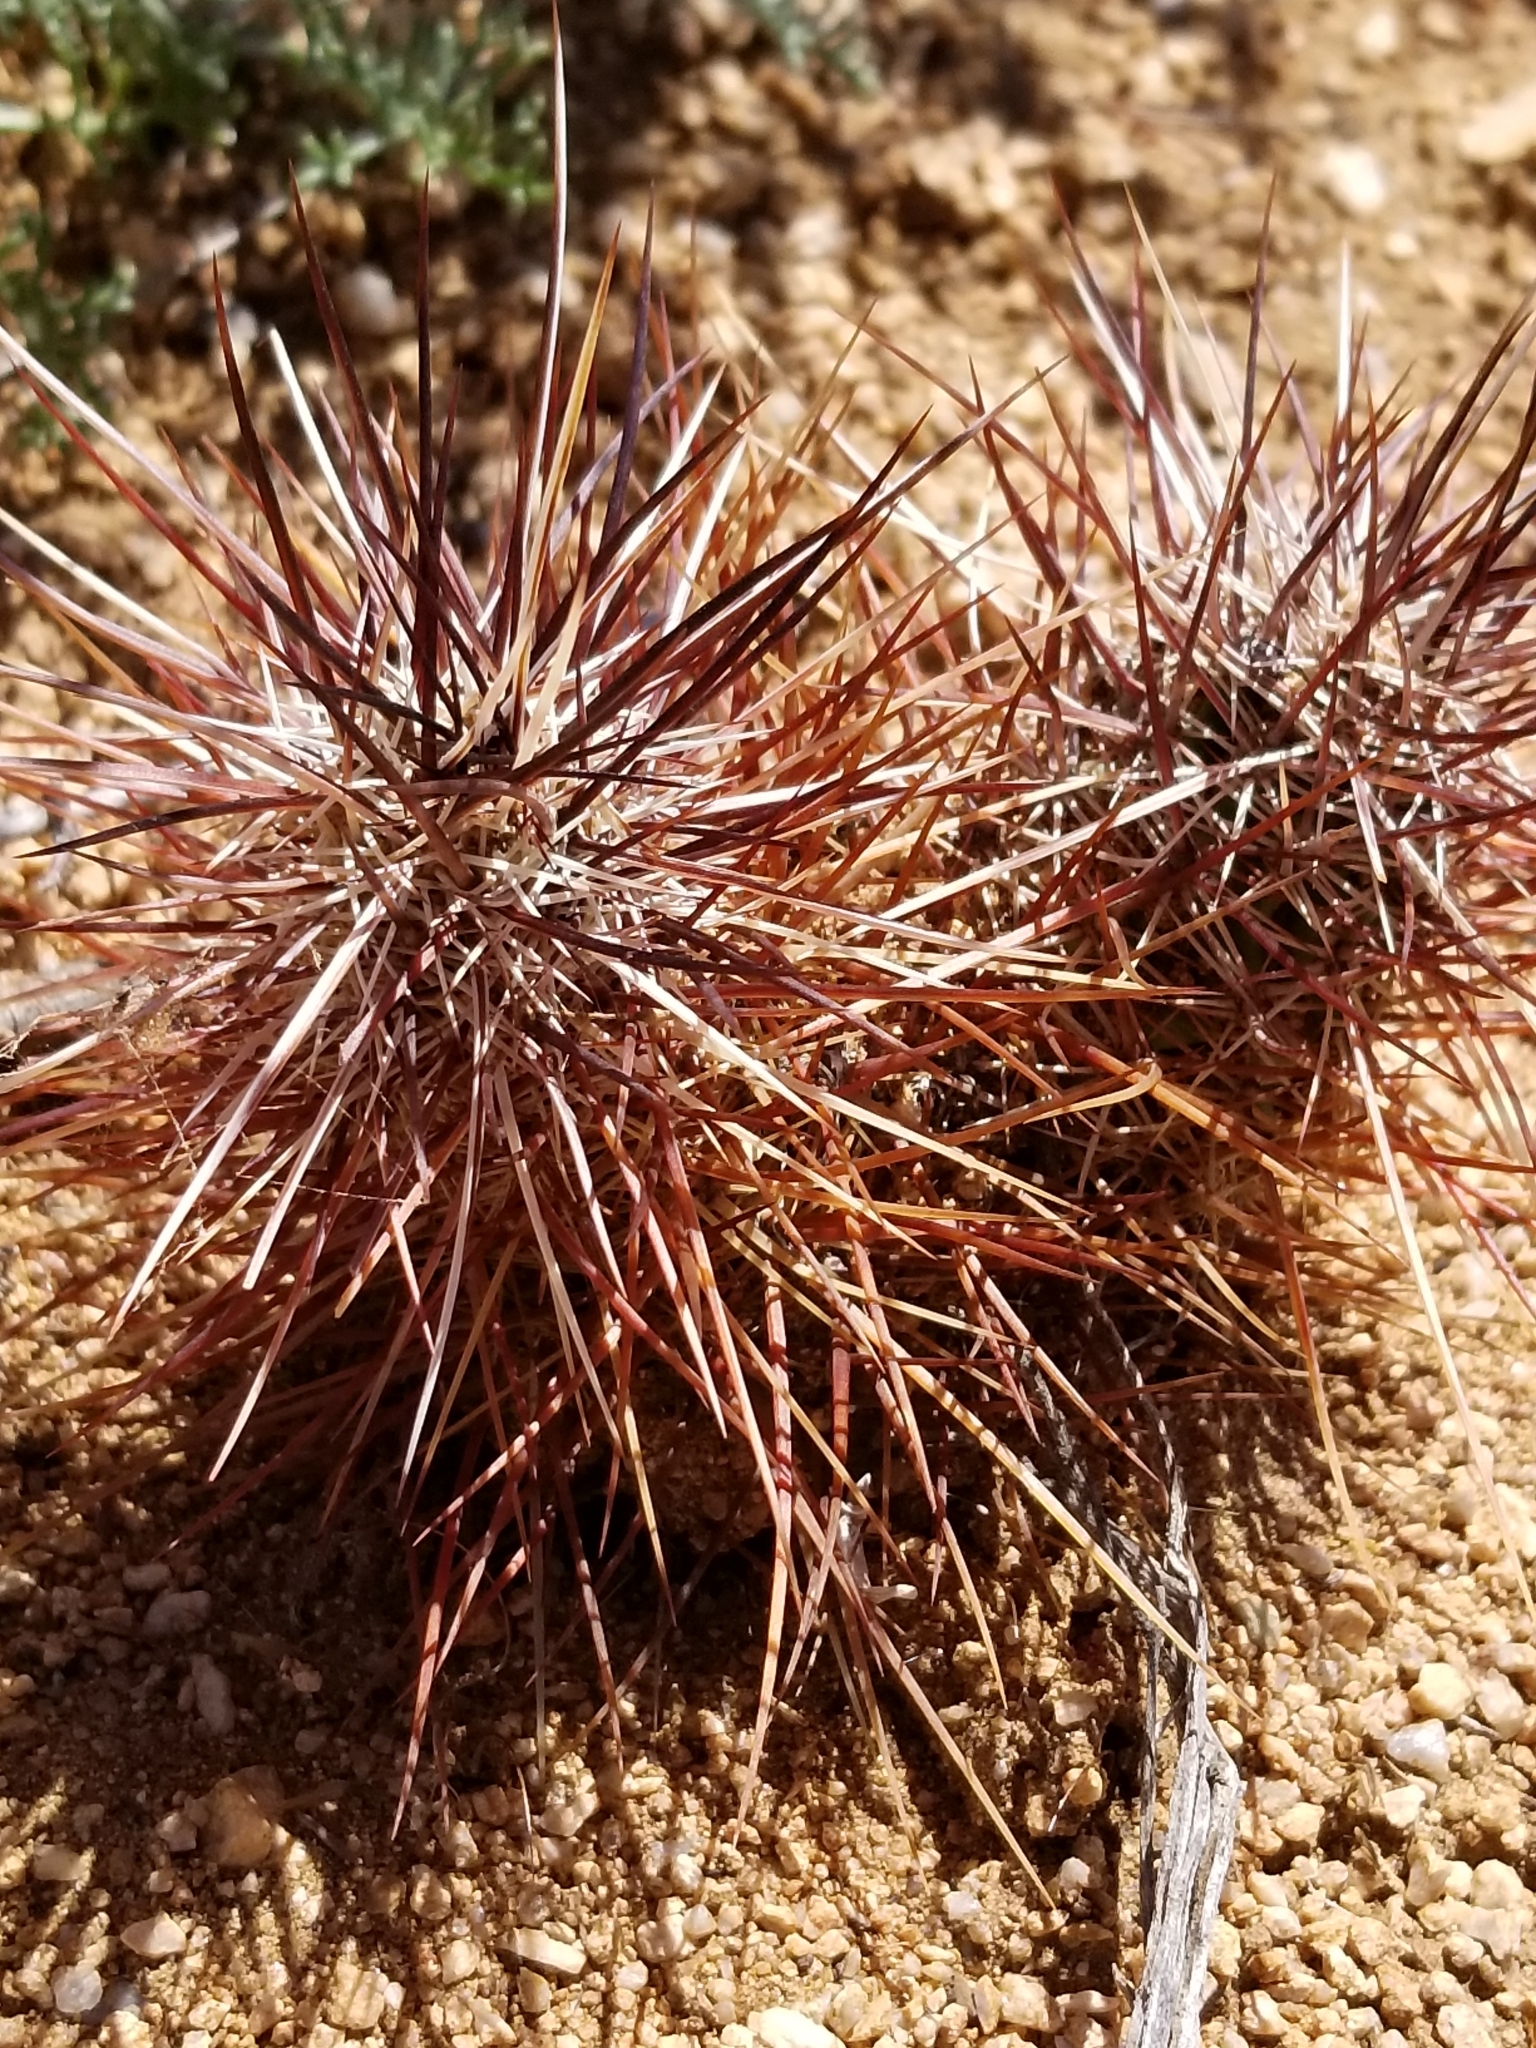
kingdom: Plantae
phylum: Tracheophyta
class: Magnoliopsida
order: Caryophyllales
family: Cactaceae
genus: Echinocereus
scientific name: Echinocereus engelmannii
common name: Engelmann's hedgehog cactus
